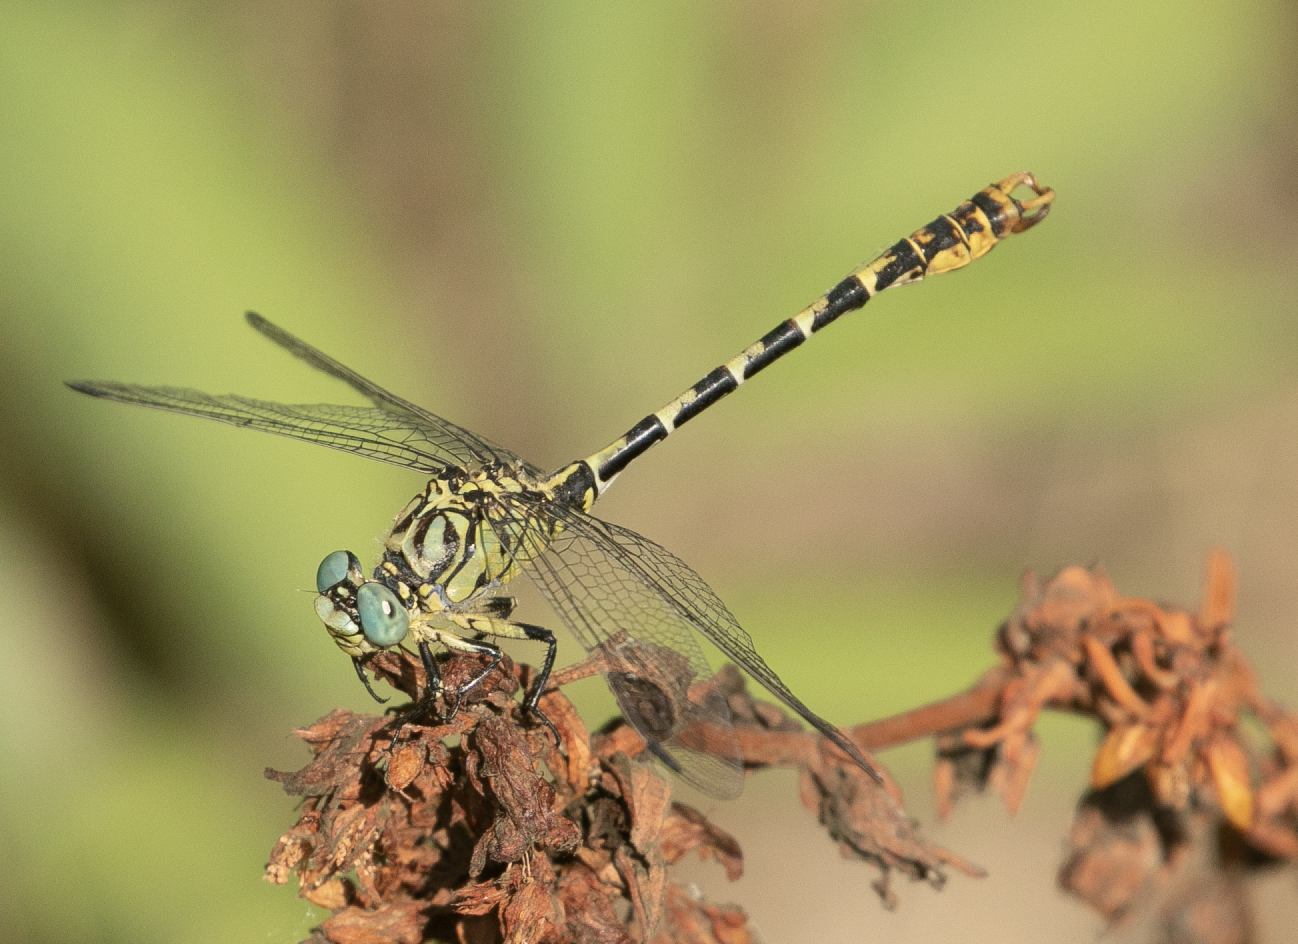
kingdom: Animalia
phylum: Arthropoda
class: Insecta
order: Odonata
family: Gomphidae
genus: Onychogomphus
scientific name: Onychogomphus forcipatus
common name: Small pincertail
